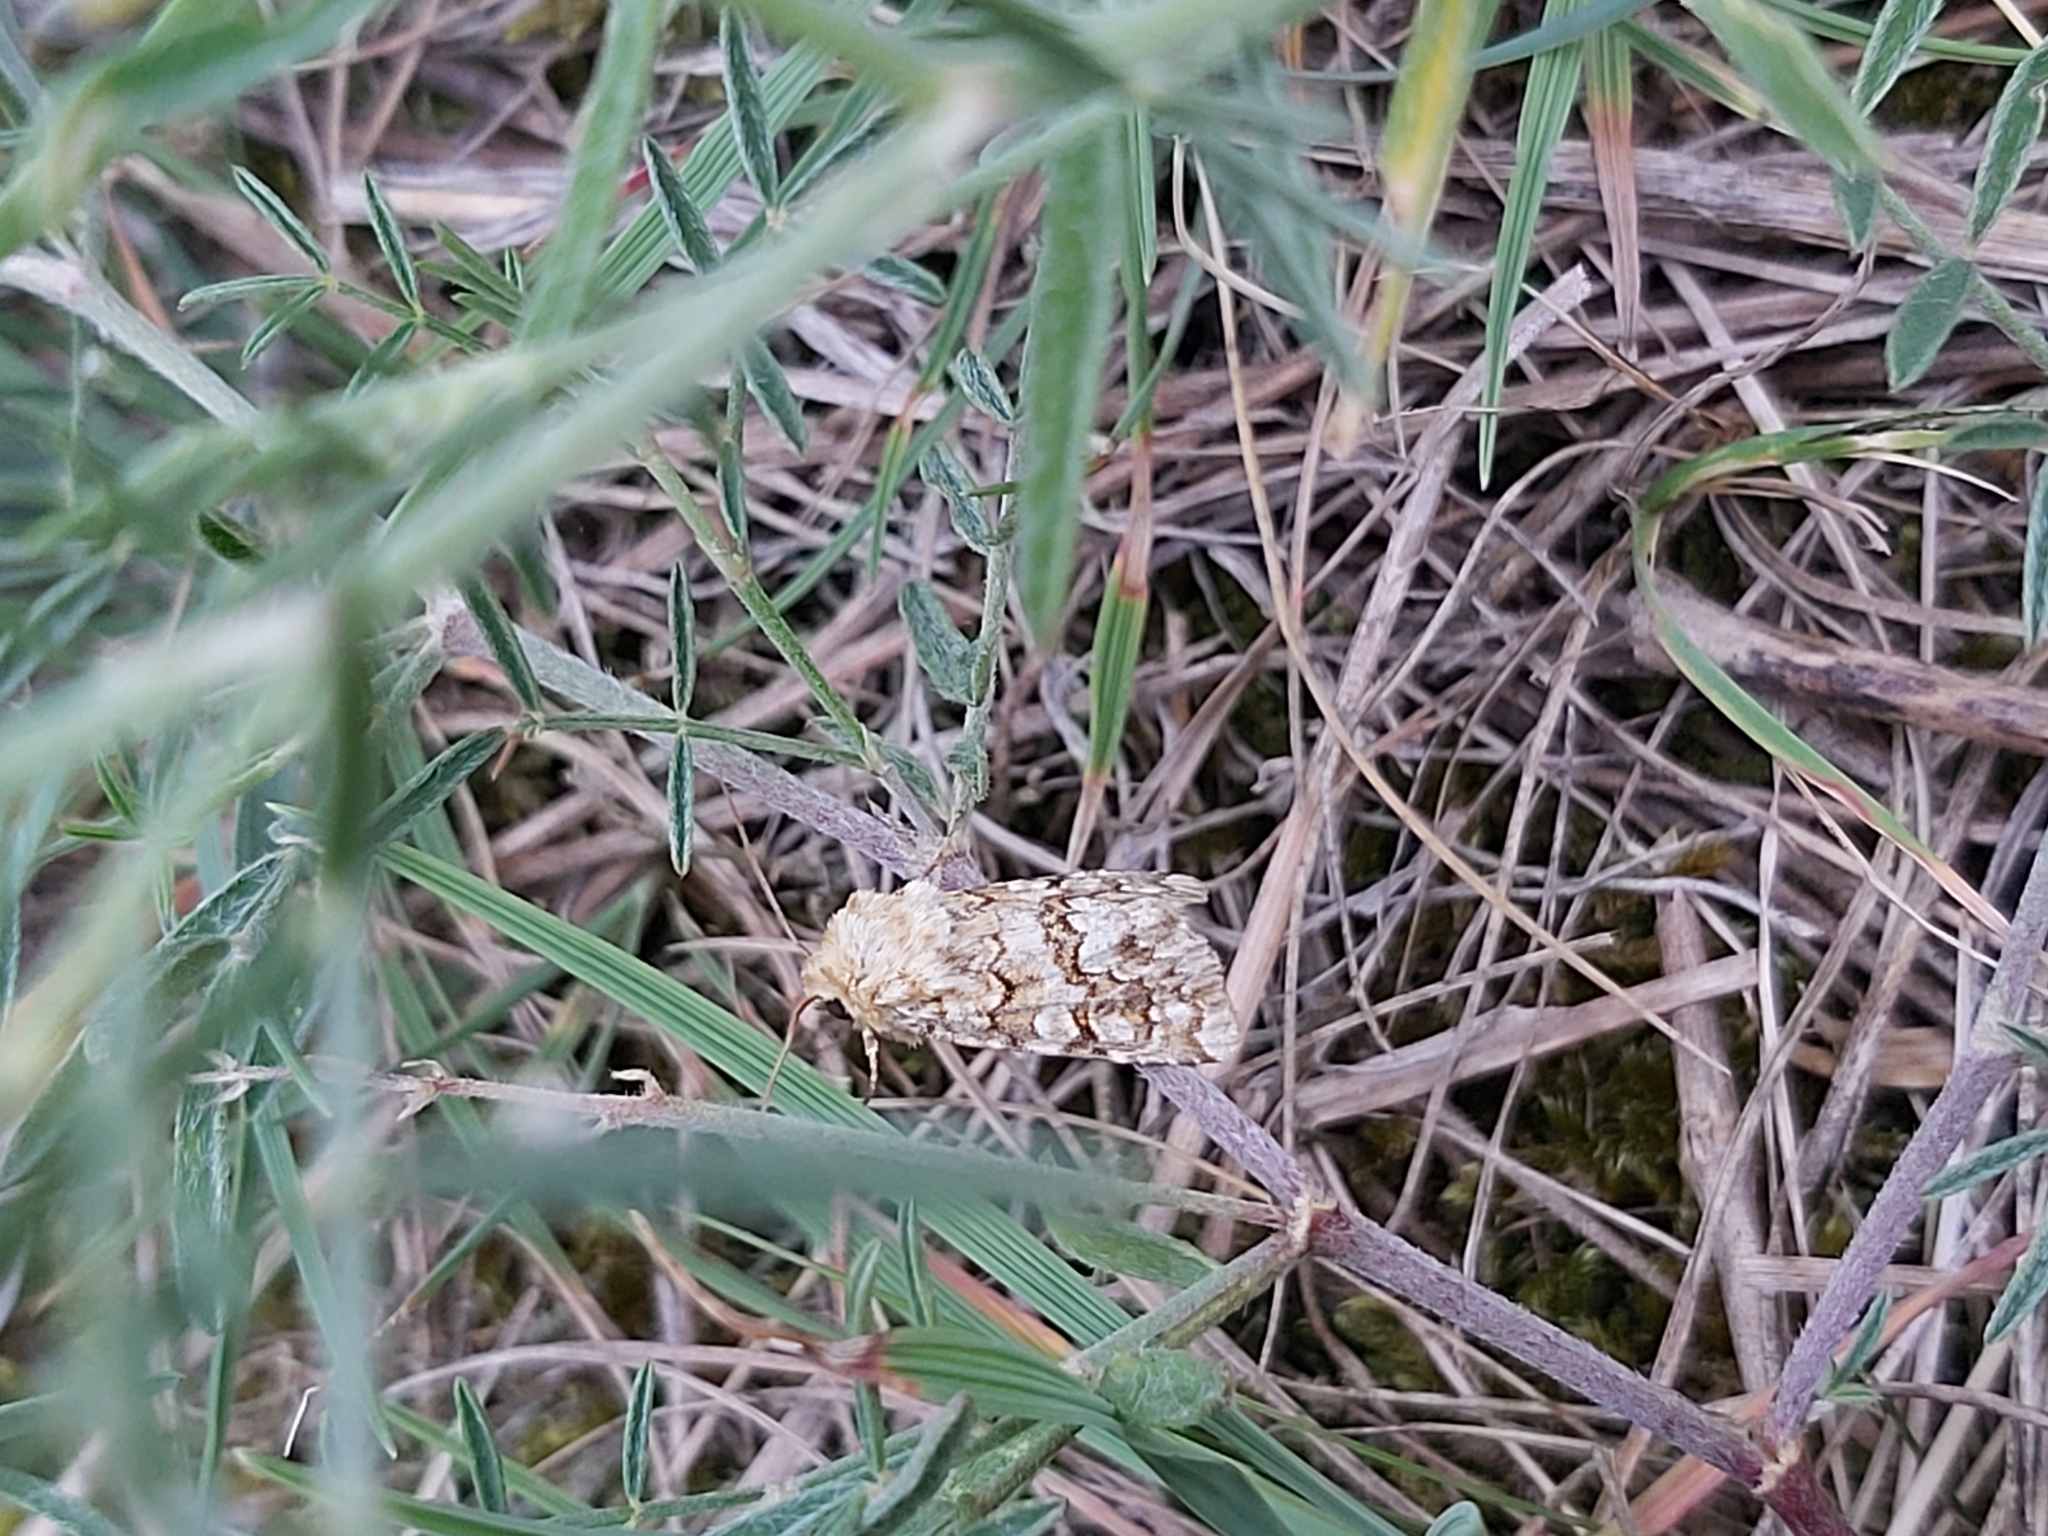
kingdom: Animalia
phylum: Arthropoda
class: Insecta
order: Lepidoptera
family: Noctuidae
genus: Hadena
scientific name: Hadena irregularis
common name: Vipers bugloss
